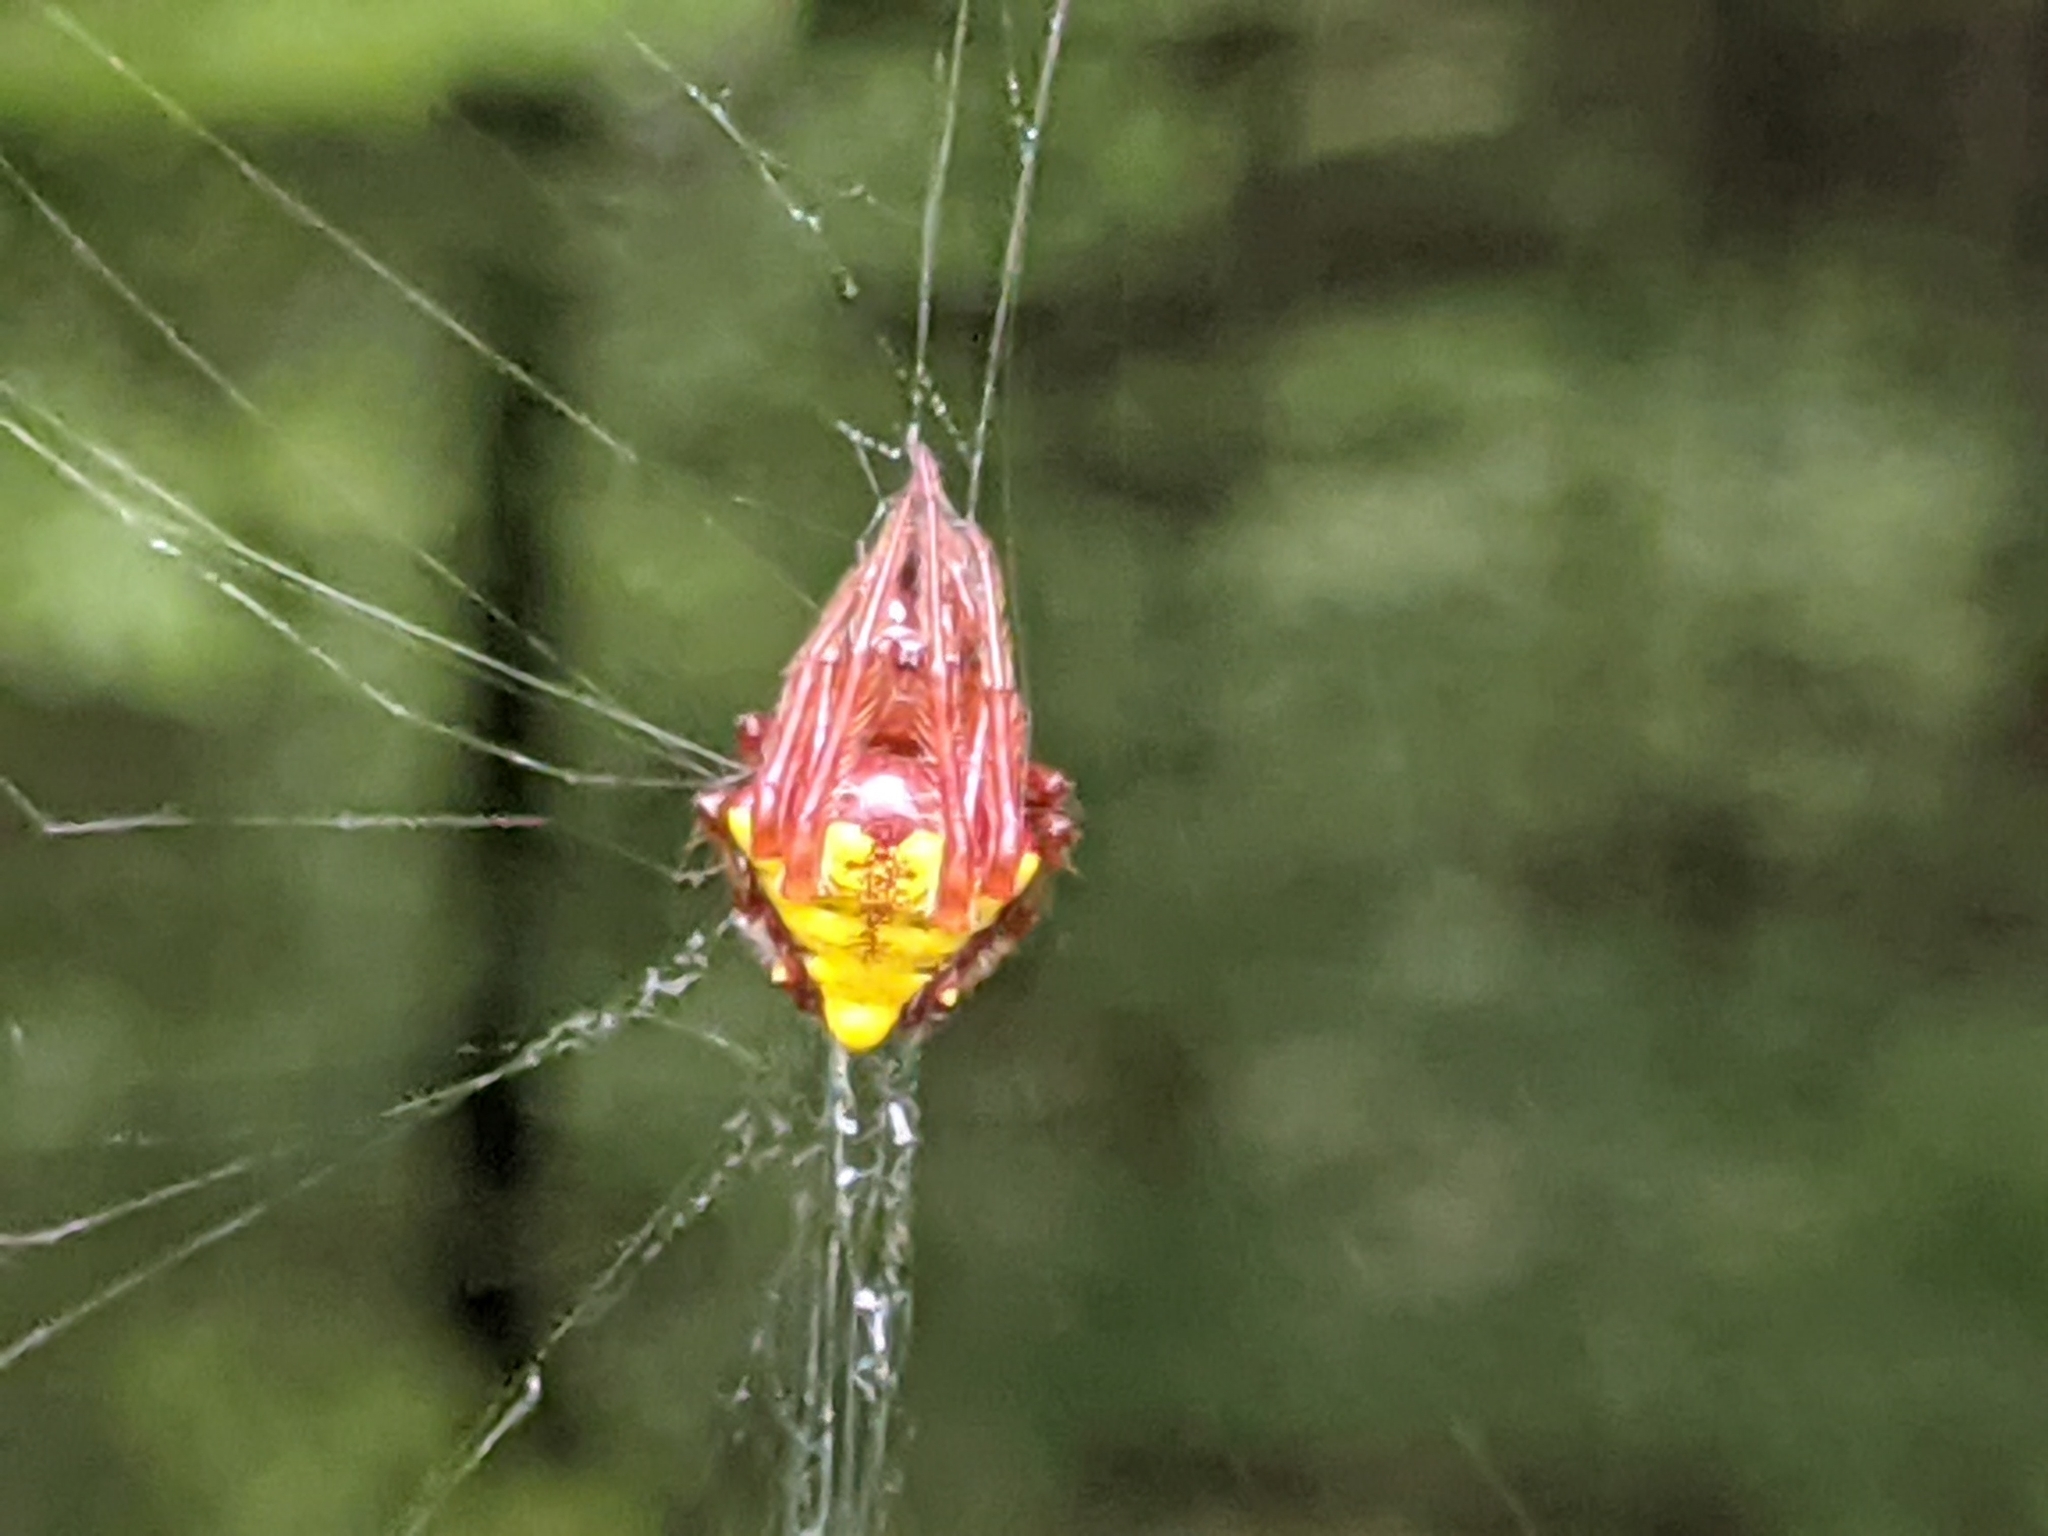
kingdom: Animalia
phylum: Arthropoda
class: Arachnida
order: Araneae
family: Araneidae
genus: Verrucosa
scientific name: Verrucosa arenata
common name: Orb weavers
